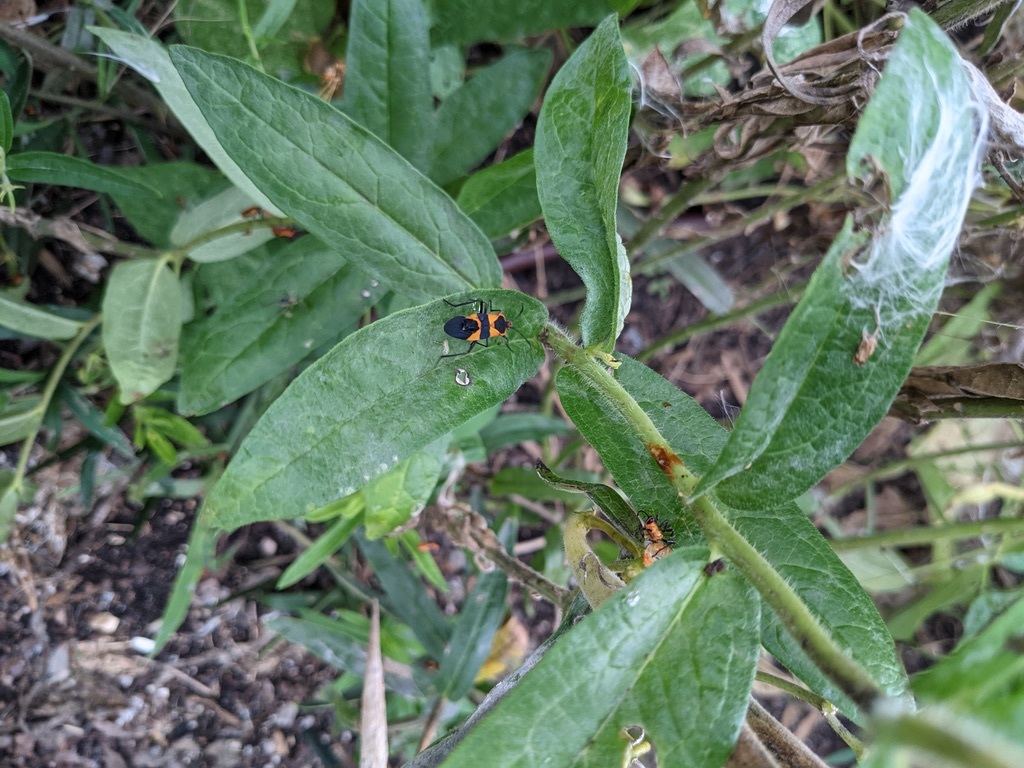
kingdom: Animalia
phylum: Arthropoda
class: Insecta
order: Hemiptera
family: Lygaeidae
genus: Oncopeltus
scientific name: Oncopeltus fasciatus
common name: Large milkweed bug
